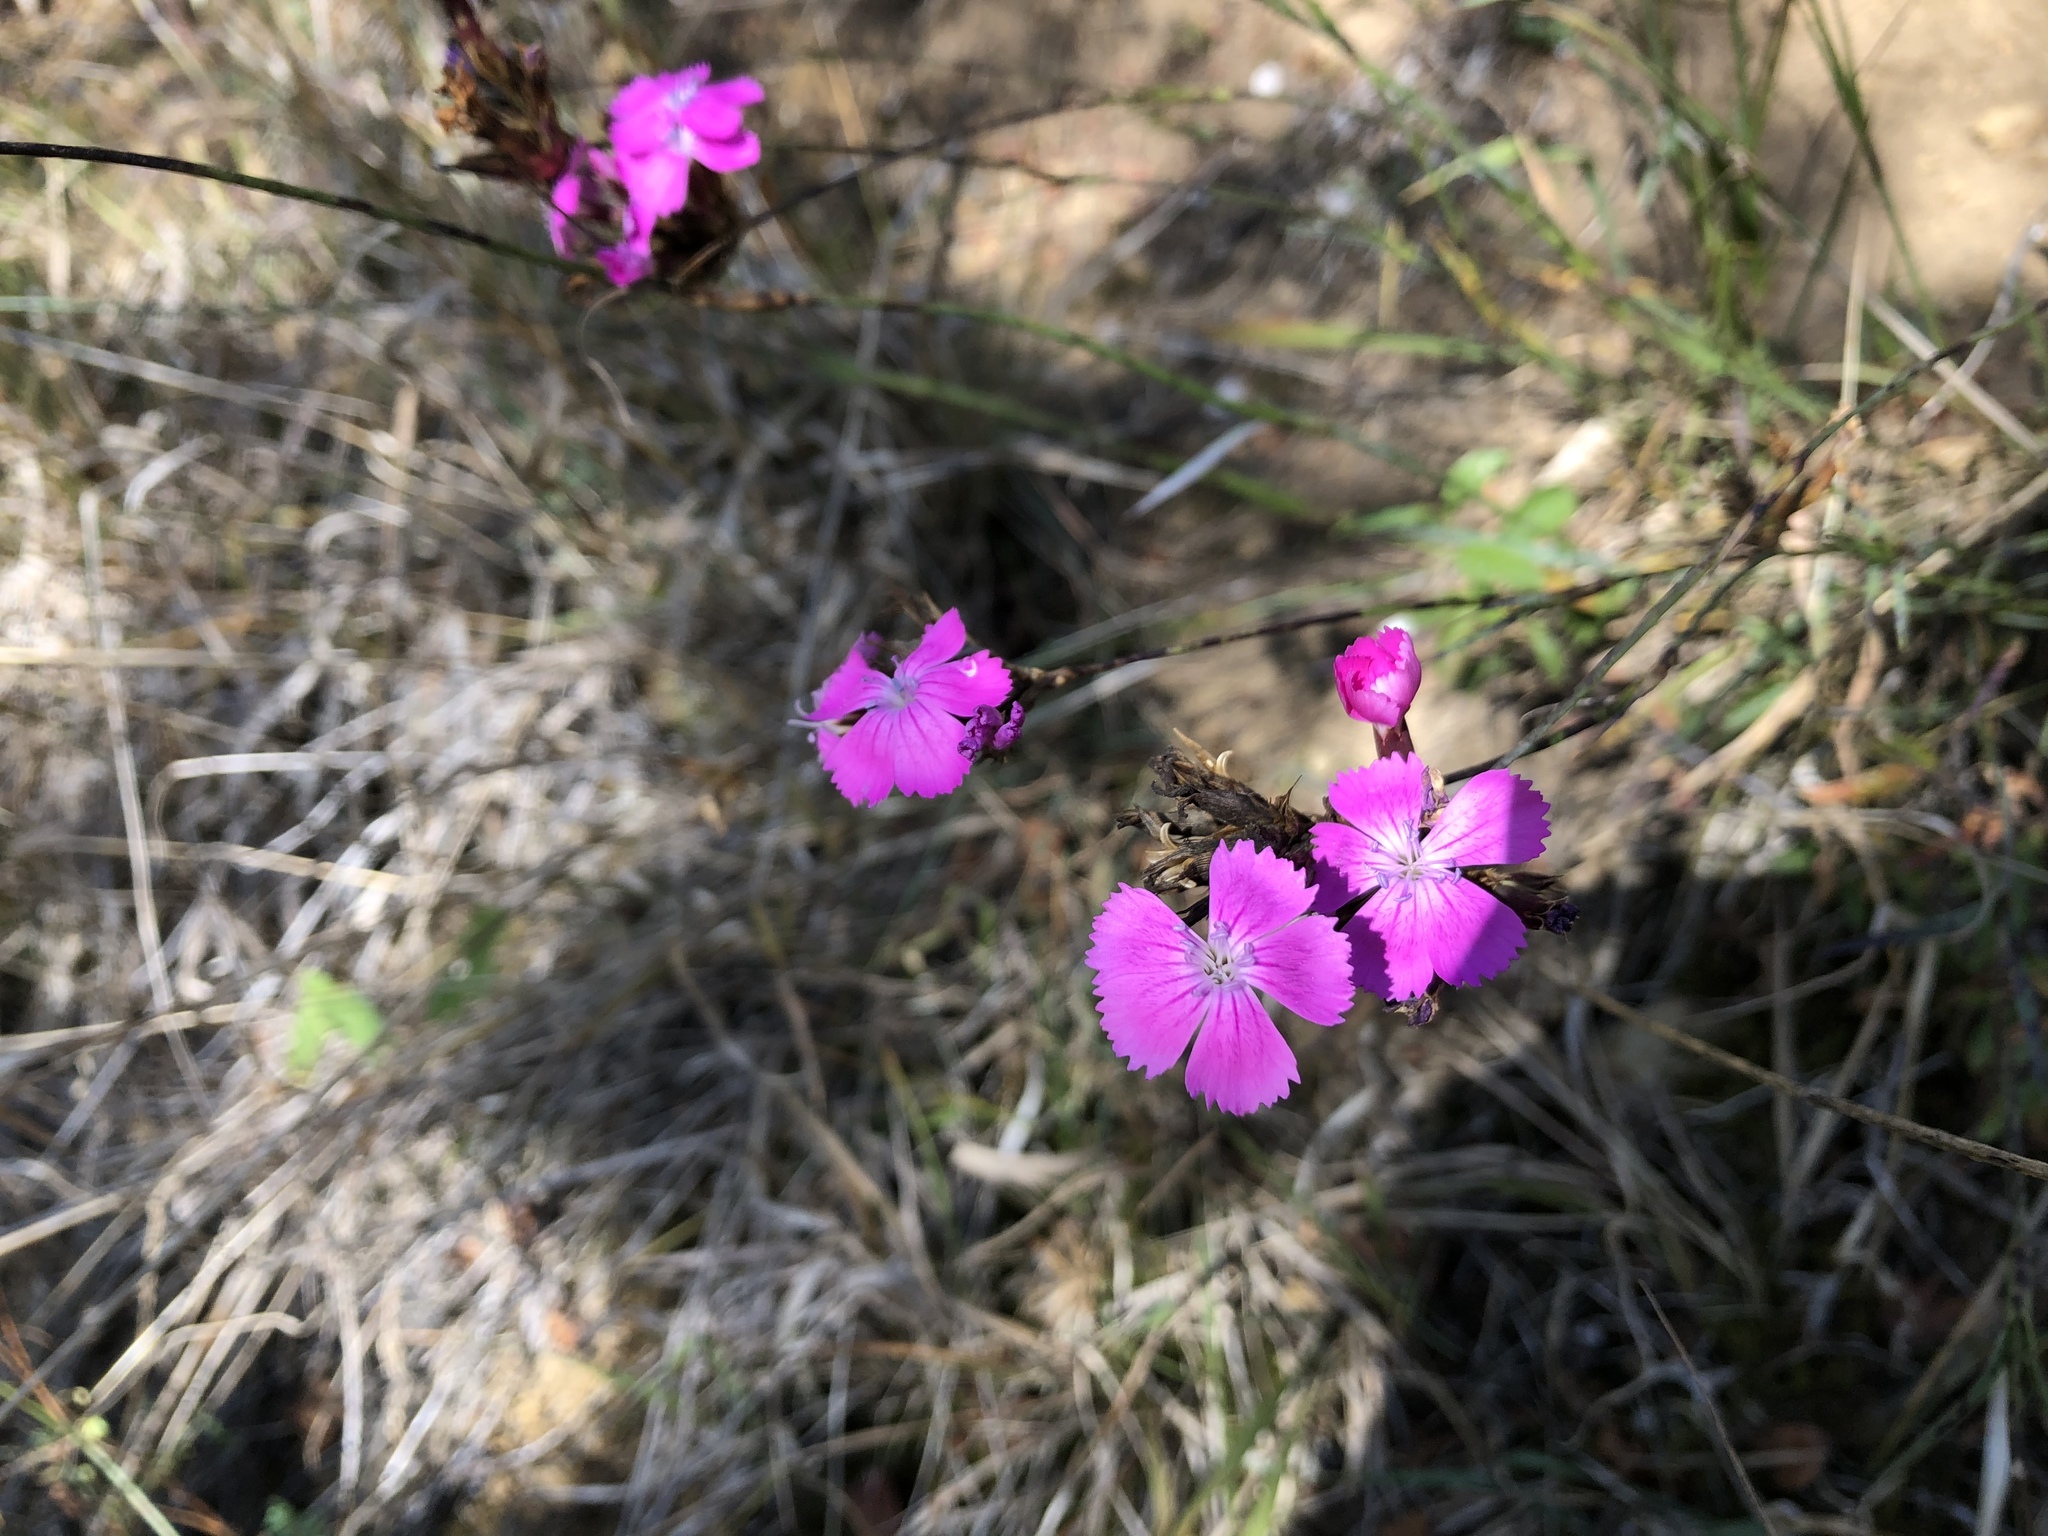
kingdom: Plantae
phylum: Tracheophyta
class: Magnoliopsida
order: Caryophyllales
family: Caryophyllaceae
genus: Dianthus
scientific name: Dianthus carthusianorum
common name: Carthusian pink
